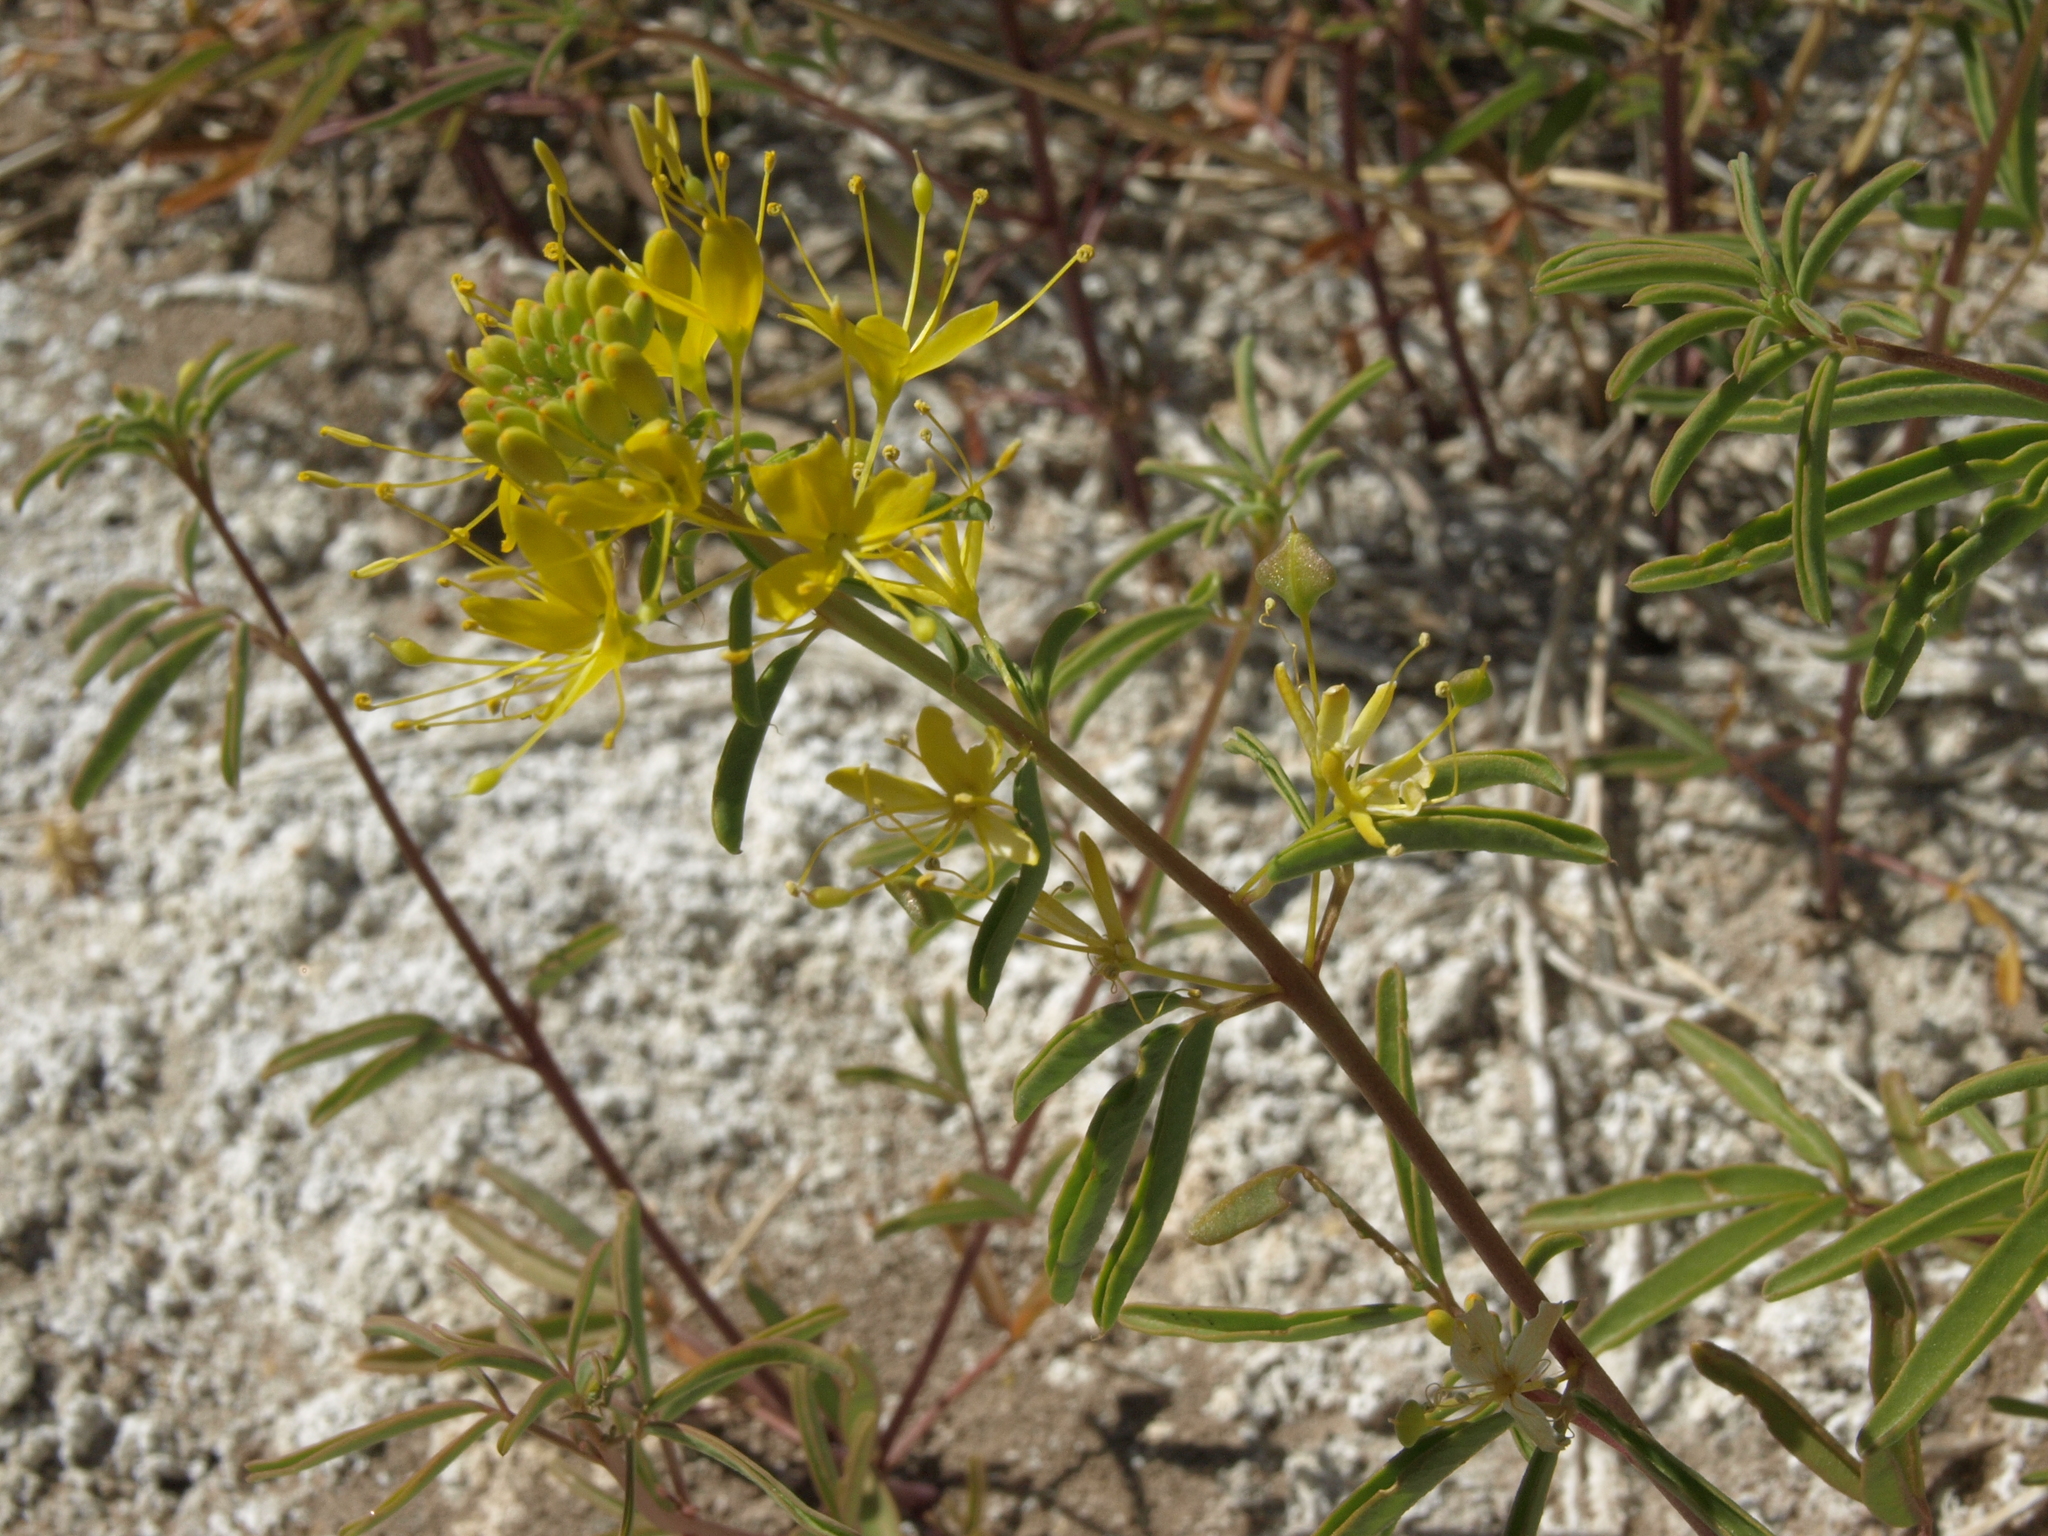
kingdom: Plantae
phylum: Tracheophyta
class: Magnoliopsida
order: Brassicales
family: Cleomaceae
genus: Cleomella
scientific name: Cleomella plocasperma
